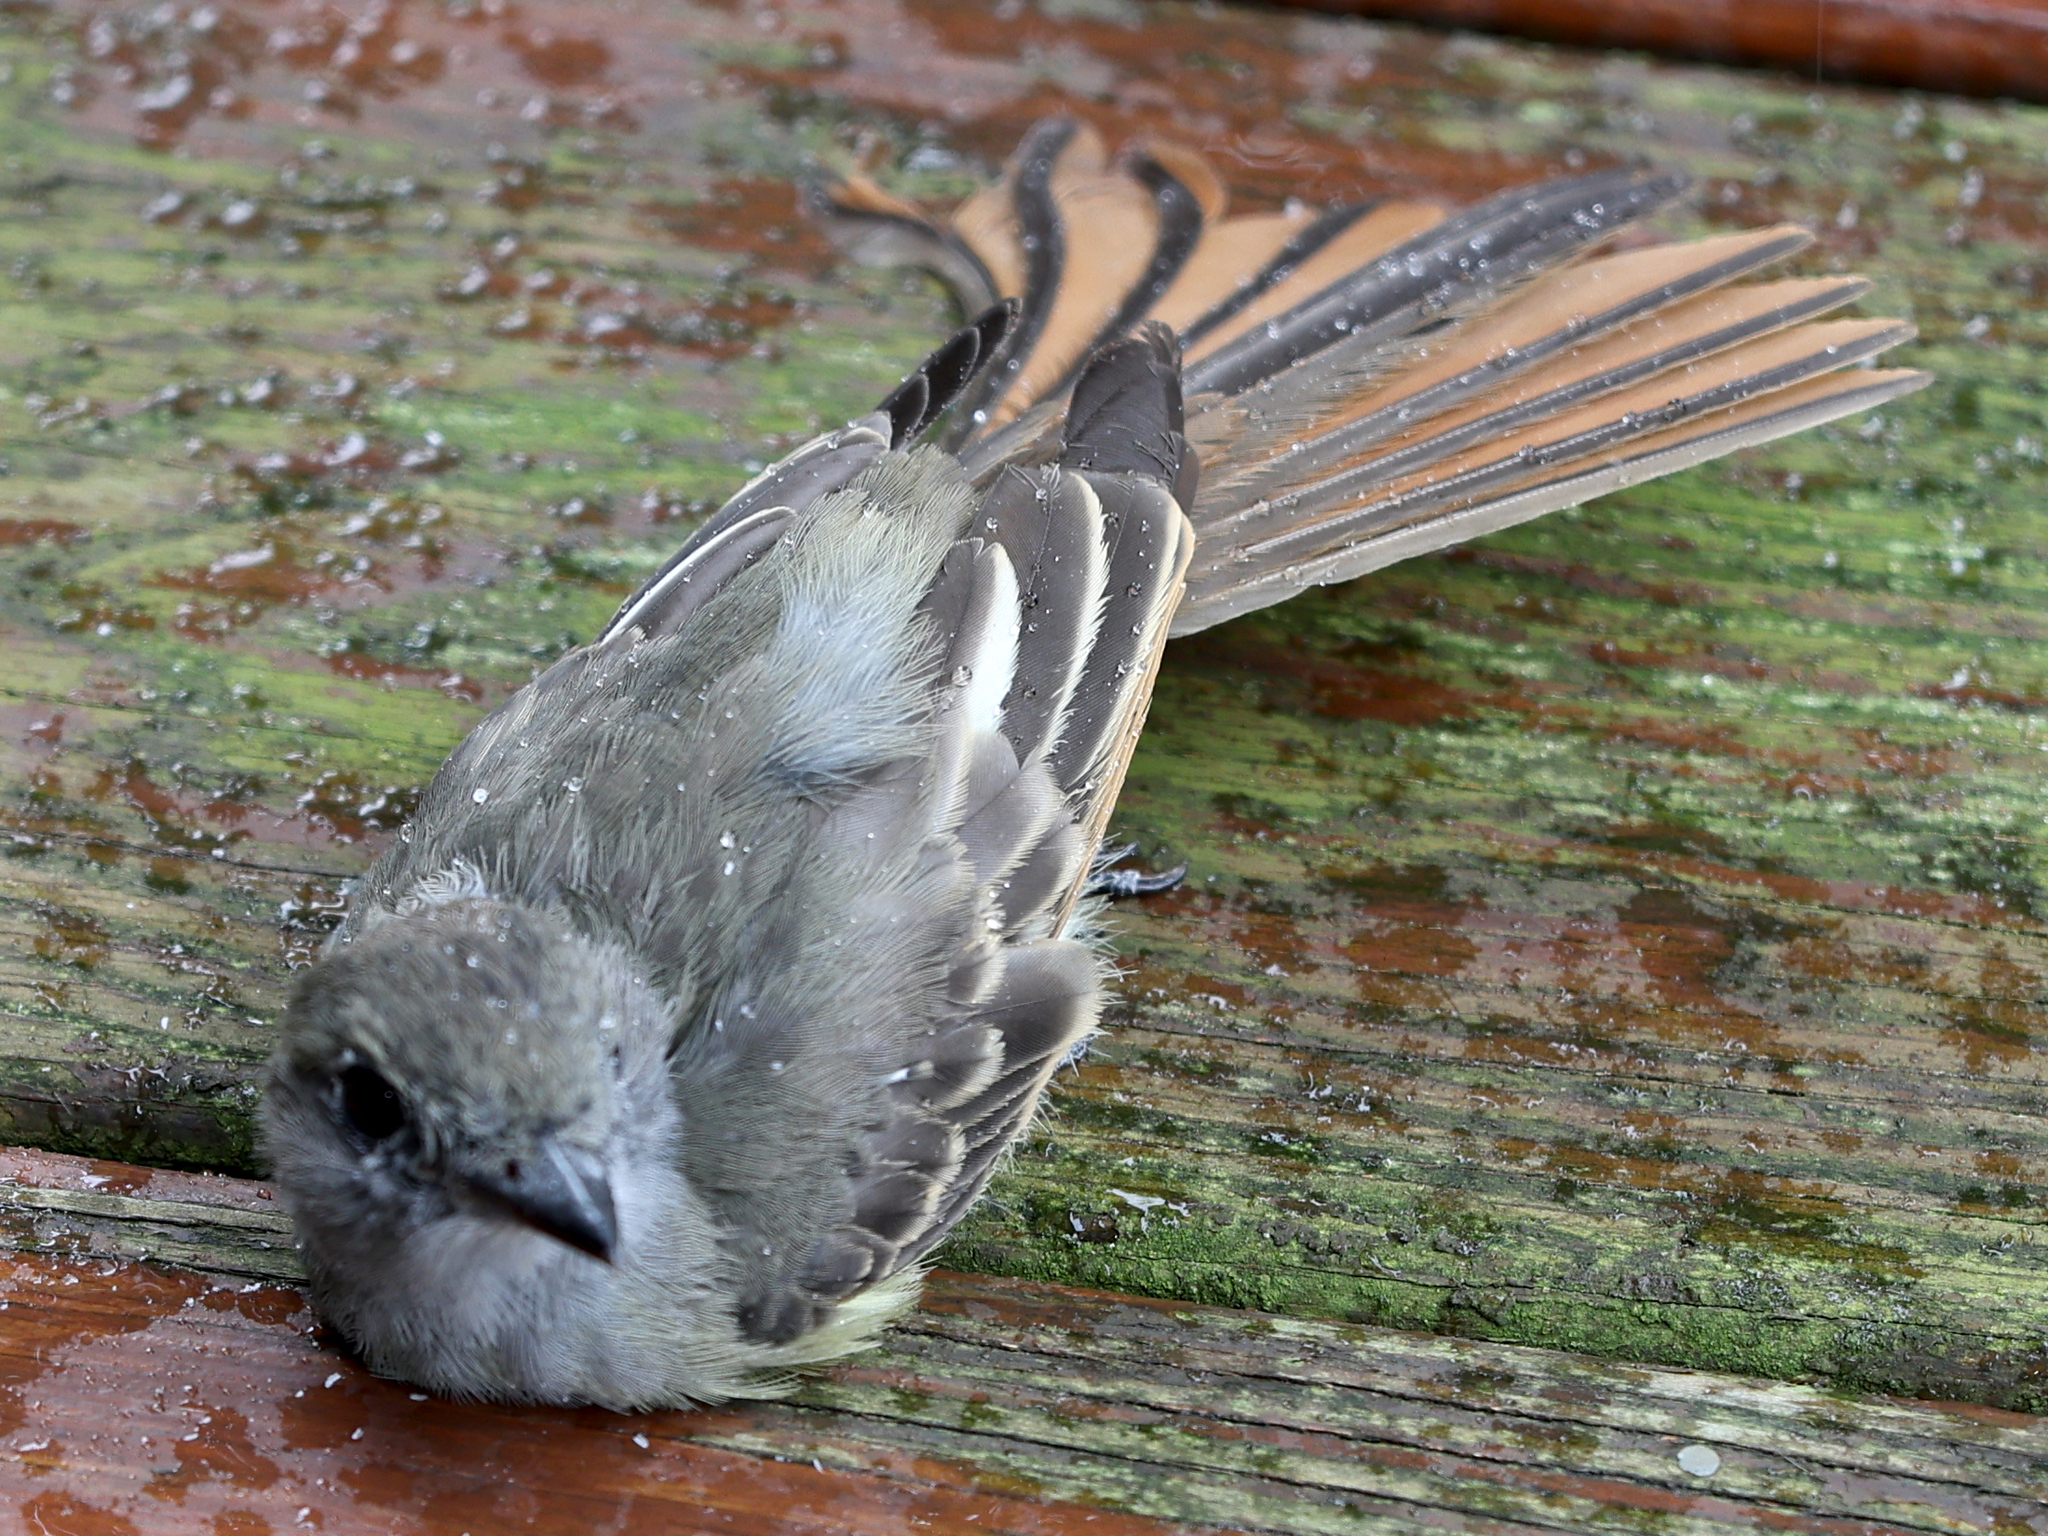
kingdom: Animalia
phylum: Chordata
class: Aves
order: Passeriformes
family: Tyrannidae
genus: Myiarchus
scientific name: Myiarchus crinitus
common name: Great crested flycatcher
